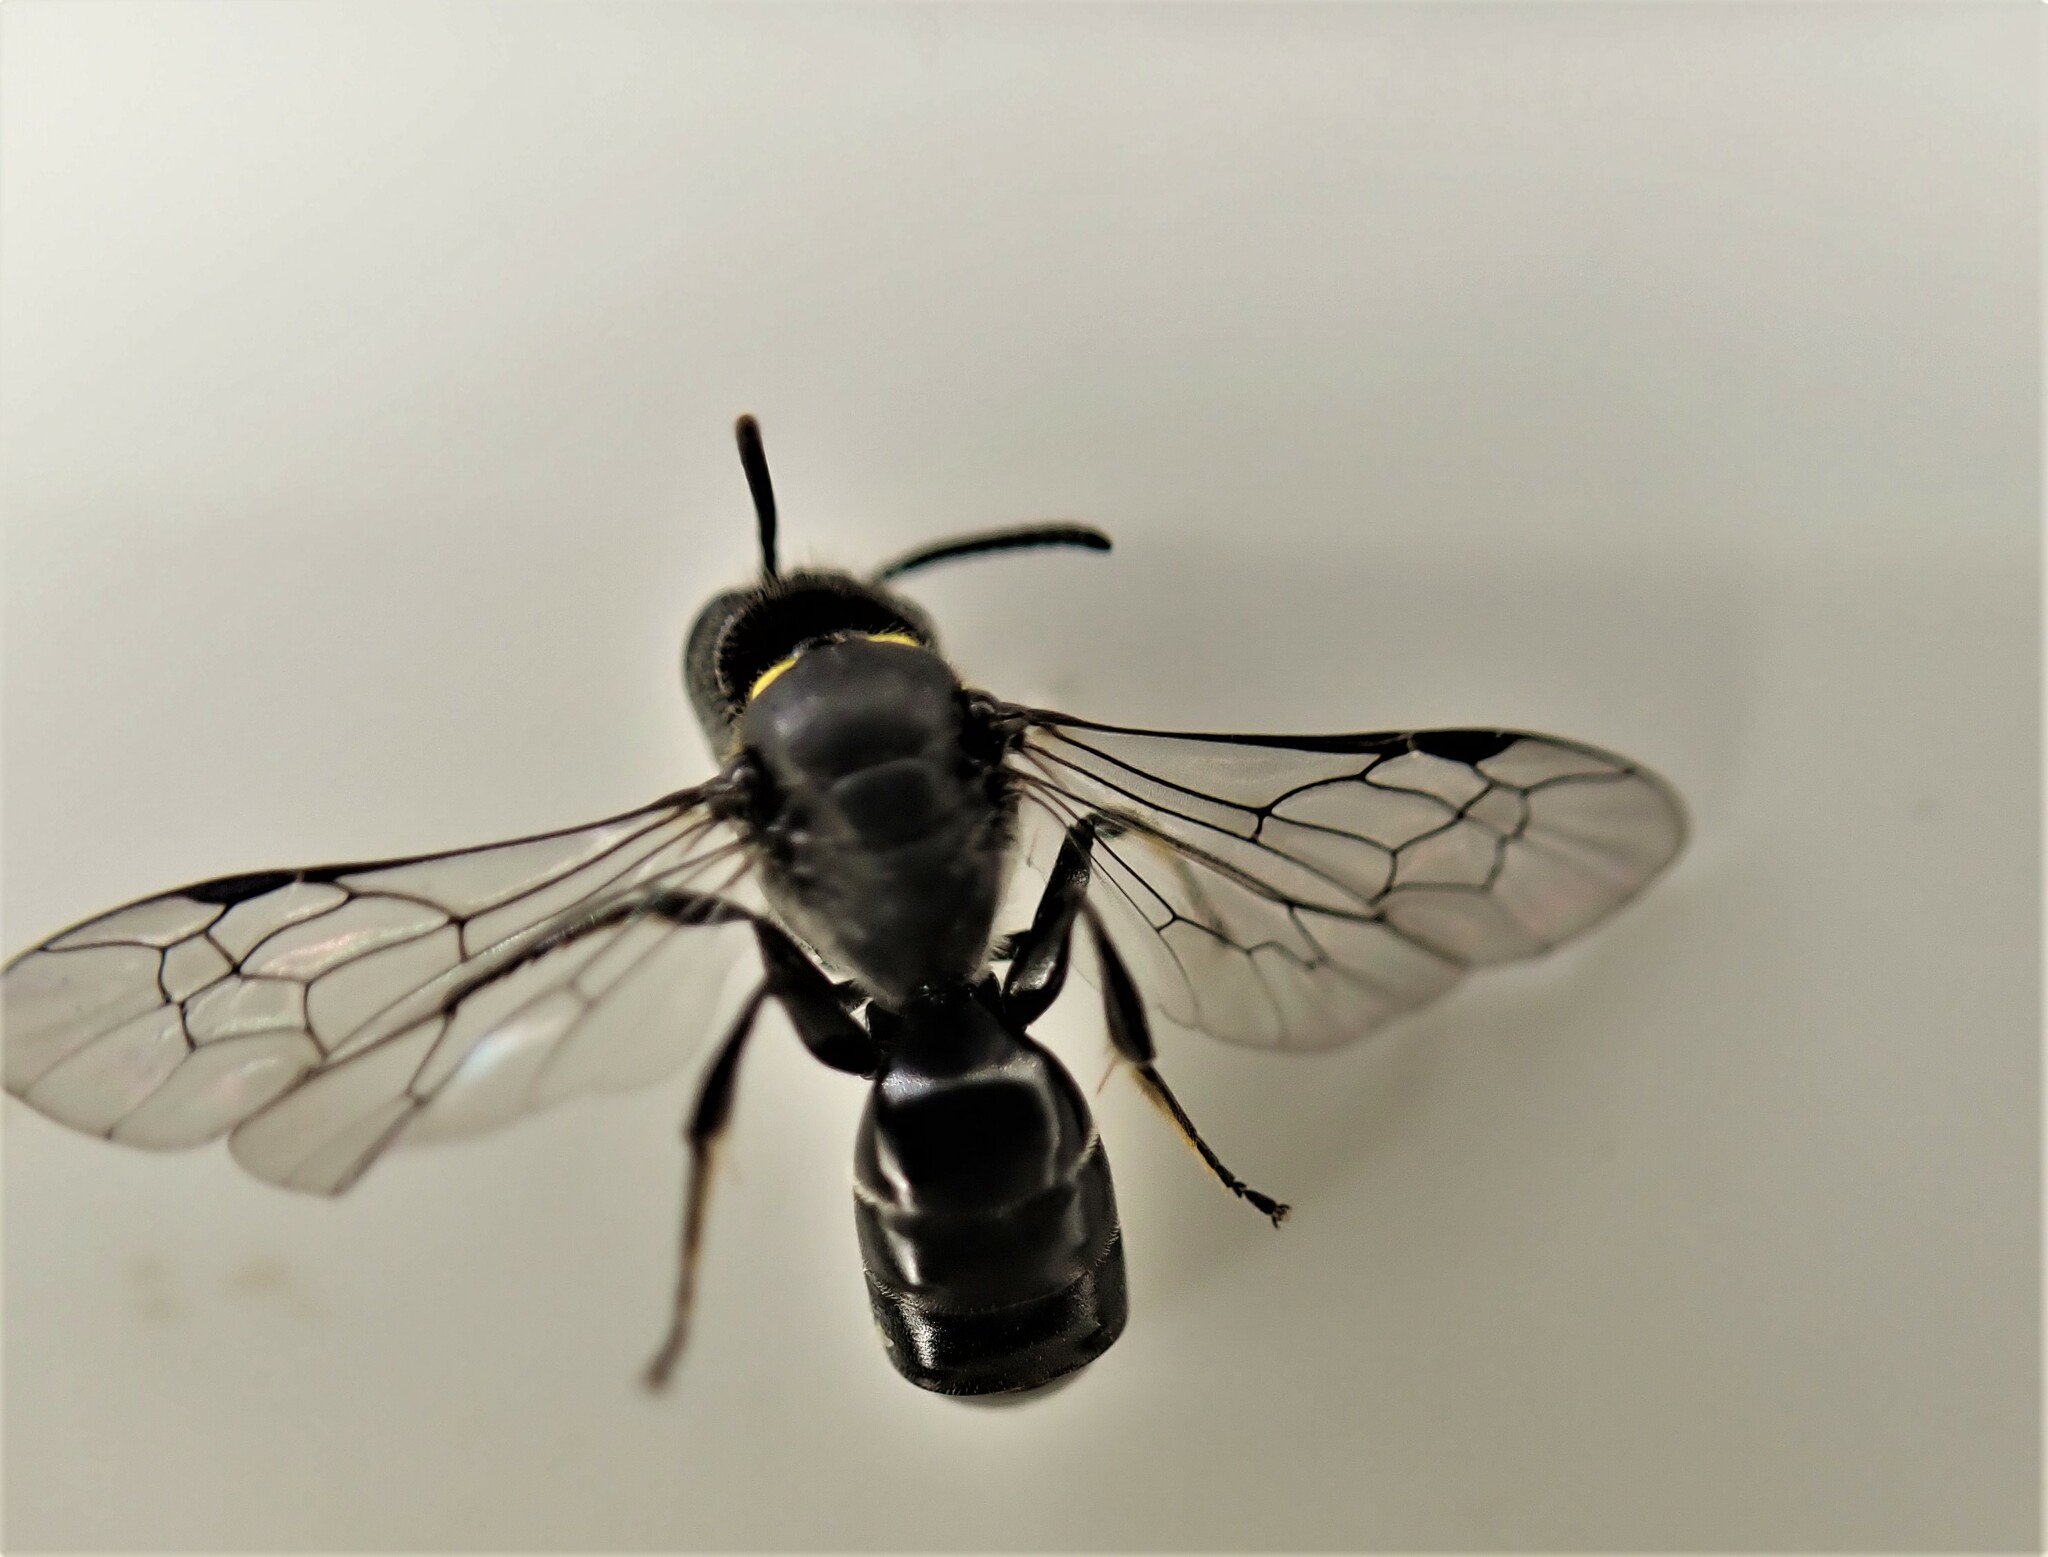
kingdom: Animalia
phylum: Arthropoda
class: Insecta
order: Hymenoptera
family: Colletidae
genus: Hylaeus
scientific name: Hylaeus relegatus
